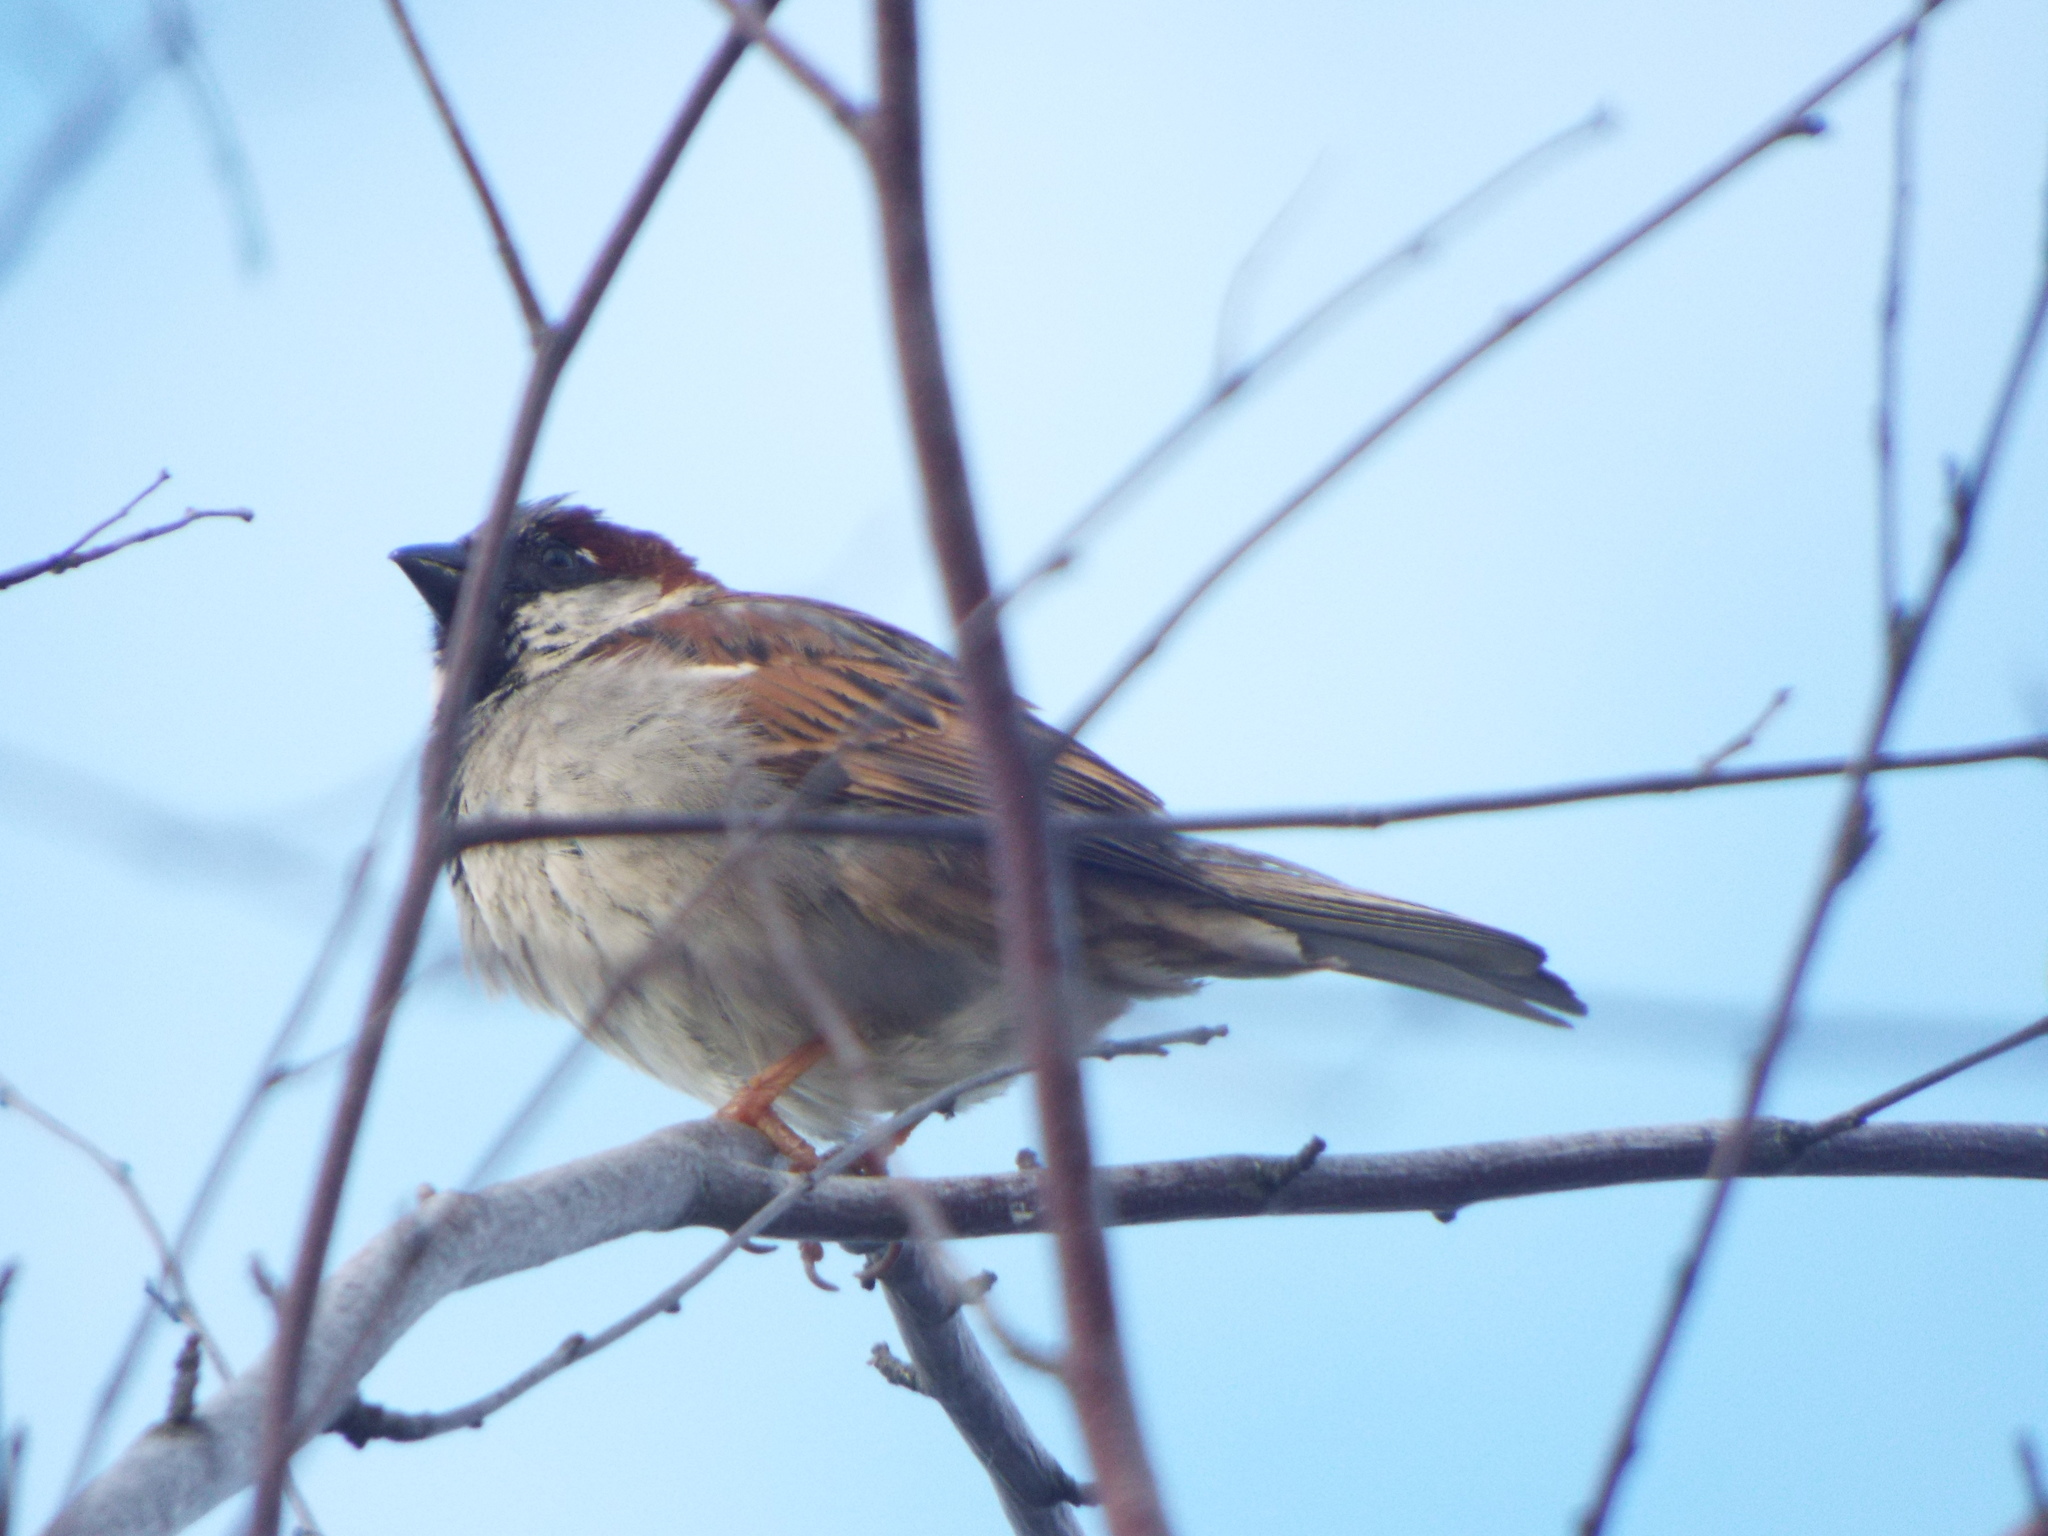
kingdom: Animalia
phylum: Chordata
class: Aves
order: Passeriformes
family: Passeridae
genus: Passer
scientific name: Passer domesticus
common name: House sparrow
